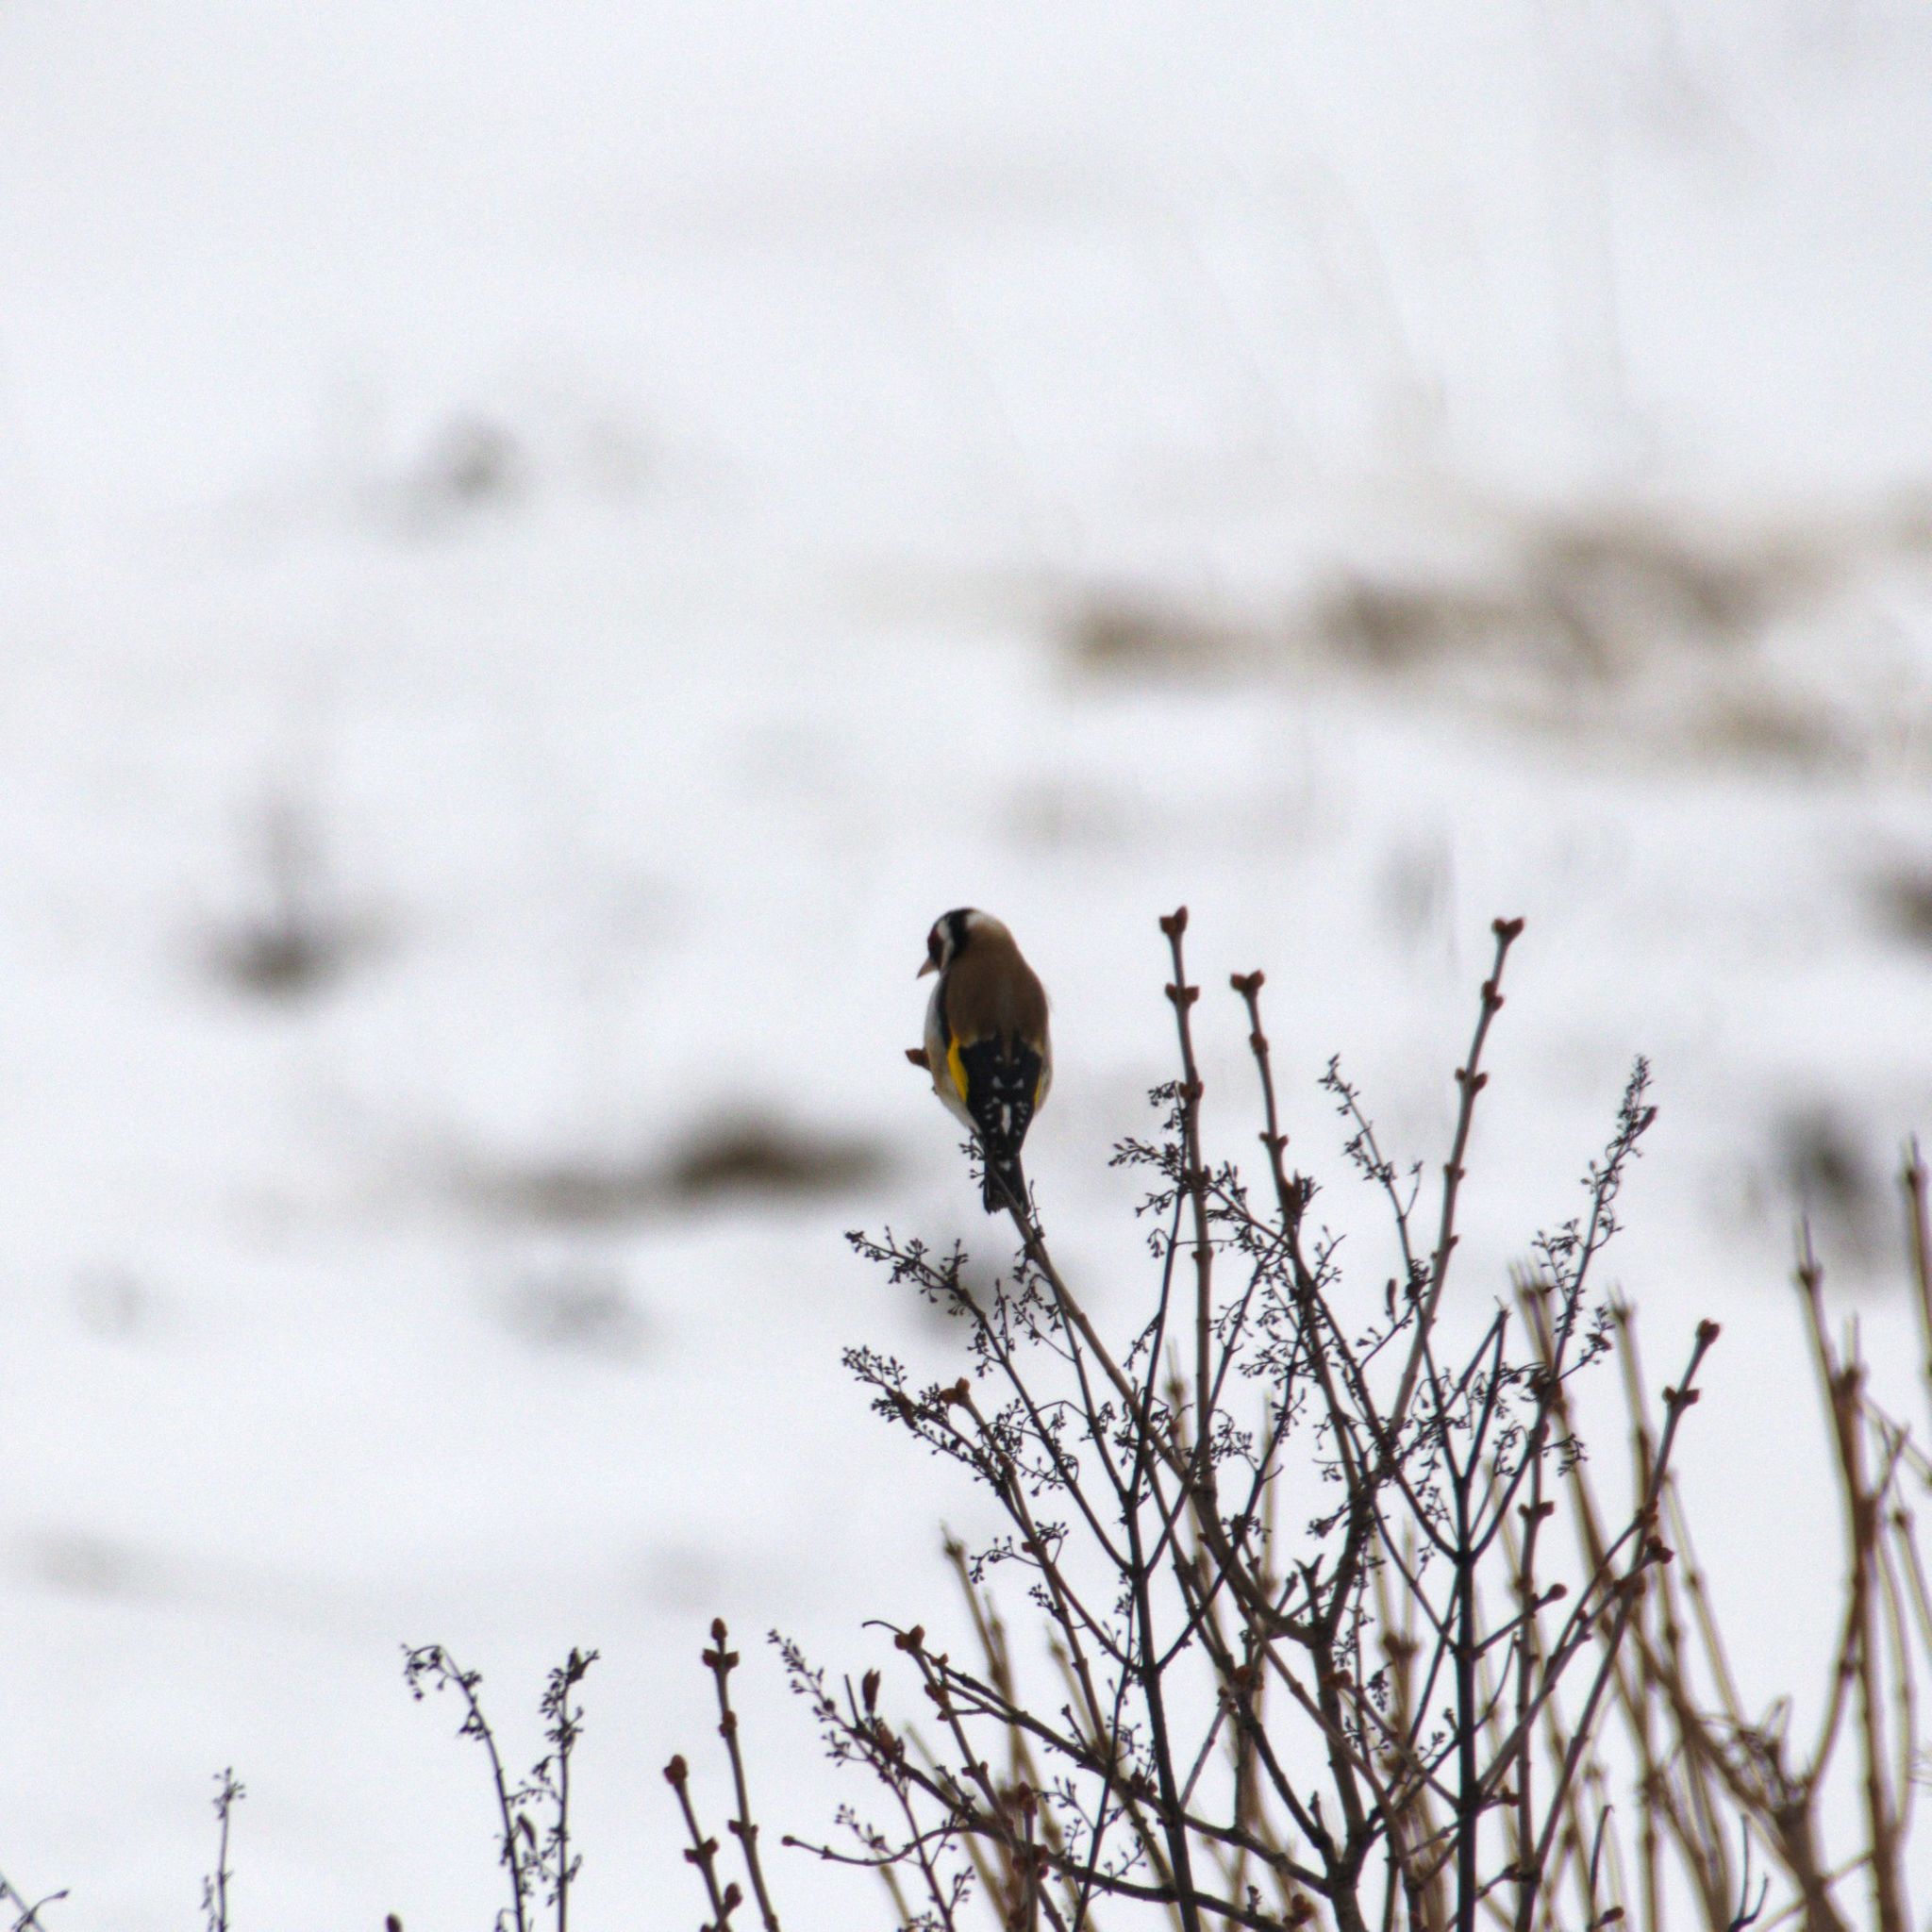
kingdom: Animalia
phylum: Chordata
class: Aves
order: Passeriformes
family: Fringillidae
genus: Carduelis
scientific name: Carduelis carduelis
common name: European goldfinch
